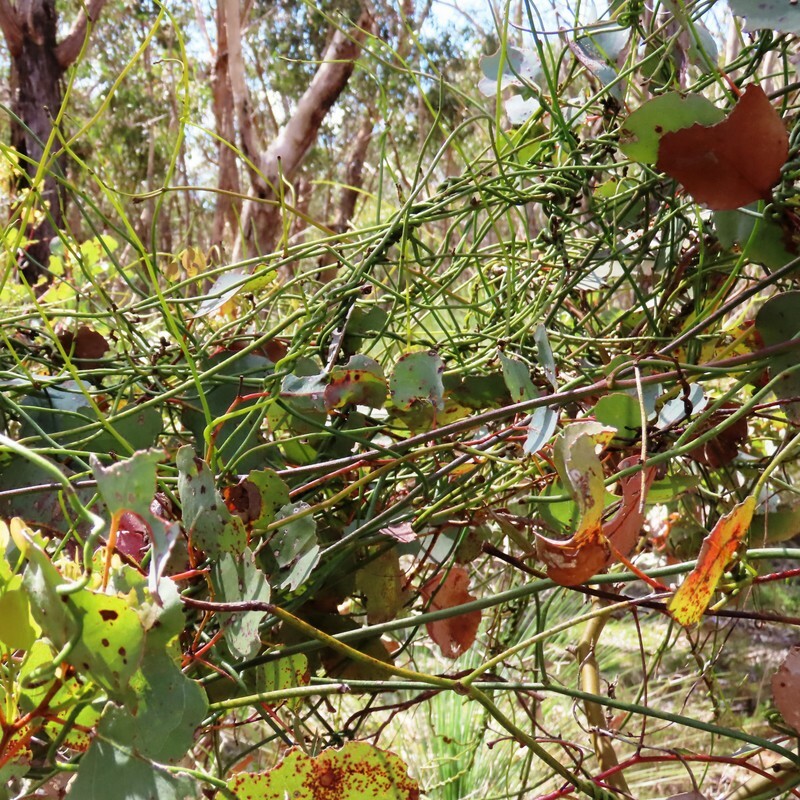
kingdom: Plantae
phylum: Tracheophyta
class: Magnoliopsida
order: Laurales
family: Lauraceae
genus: Cassytha
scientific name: Cassytha melantha
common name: Mallee stranglevine
